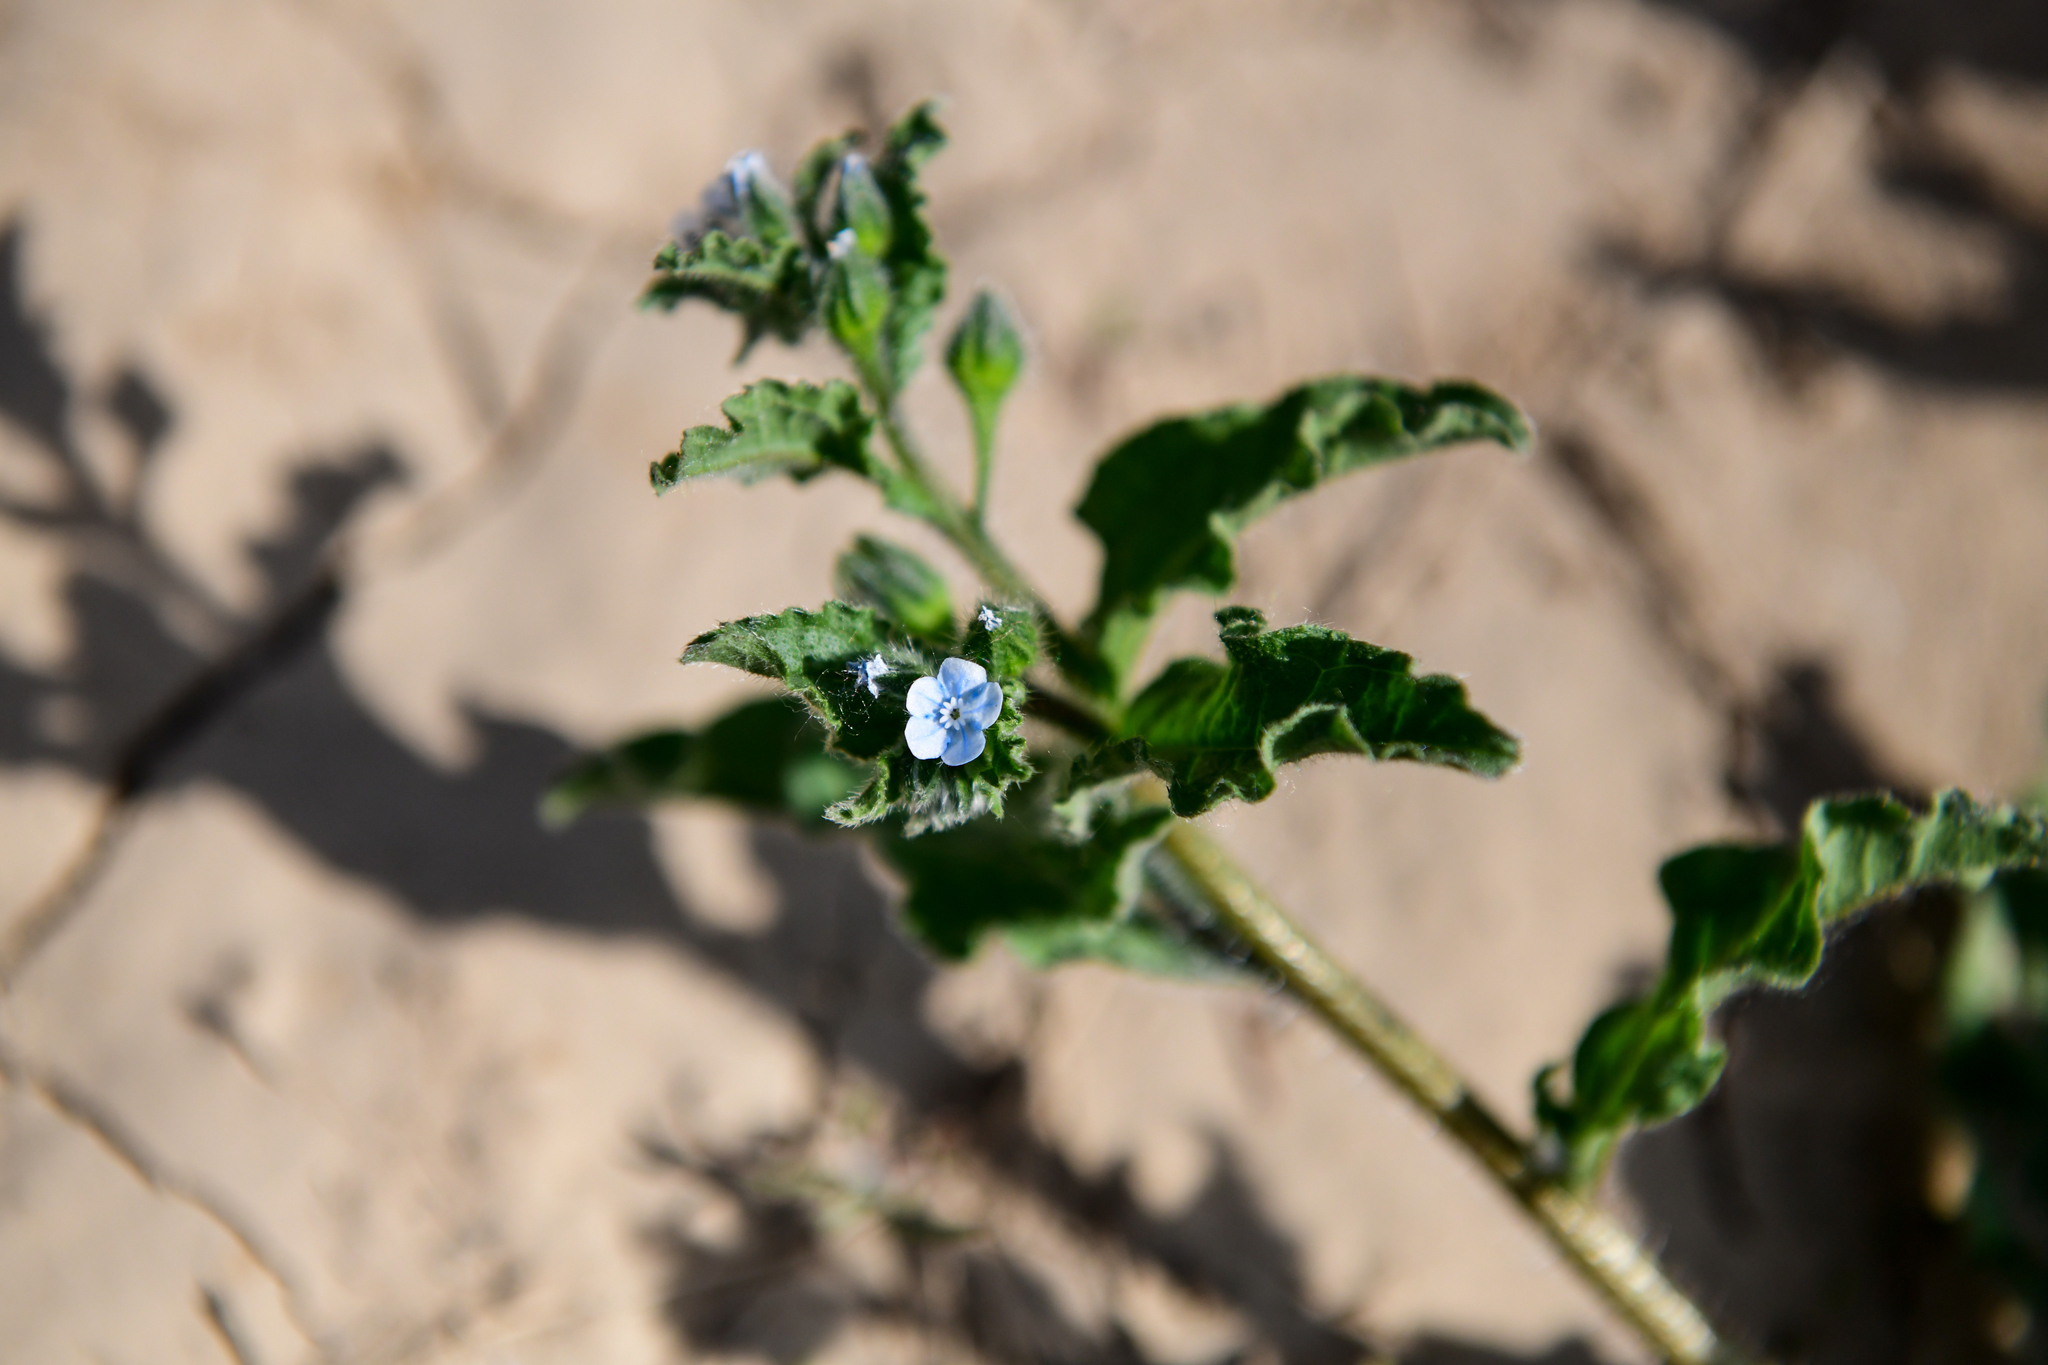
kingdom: Plantae
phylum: Tracheophyta
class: Magnoliopsida
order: Boraginales
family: Boraginaceae
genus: Bothriospermum
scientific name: Bothriospermum chinense
